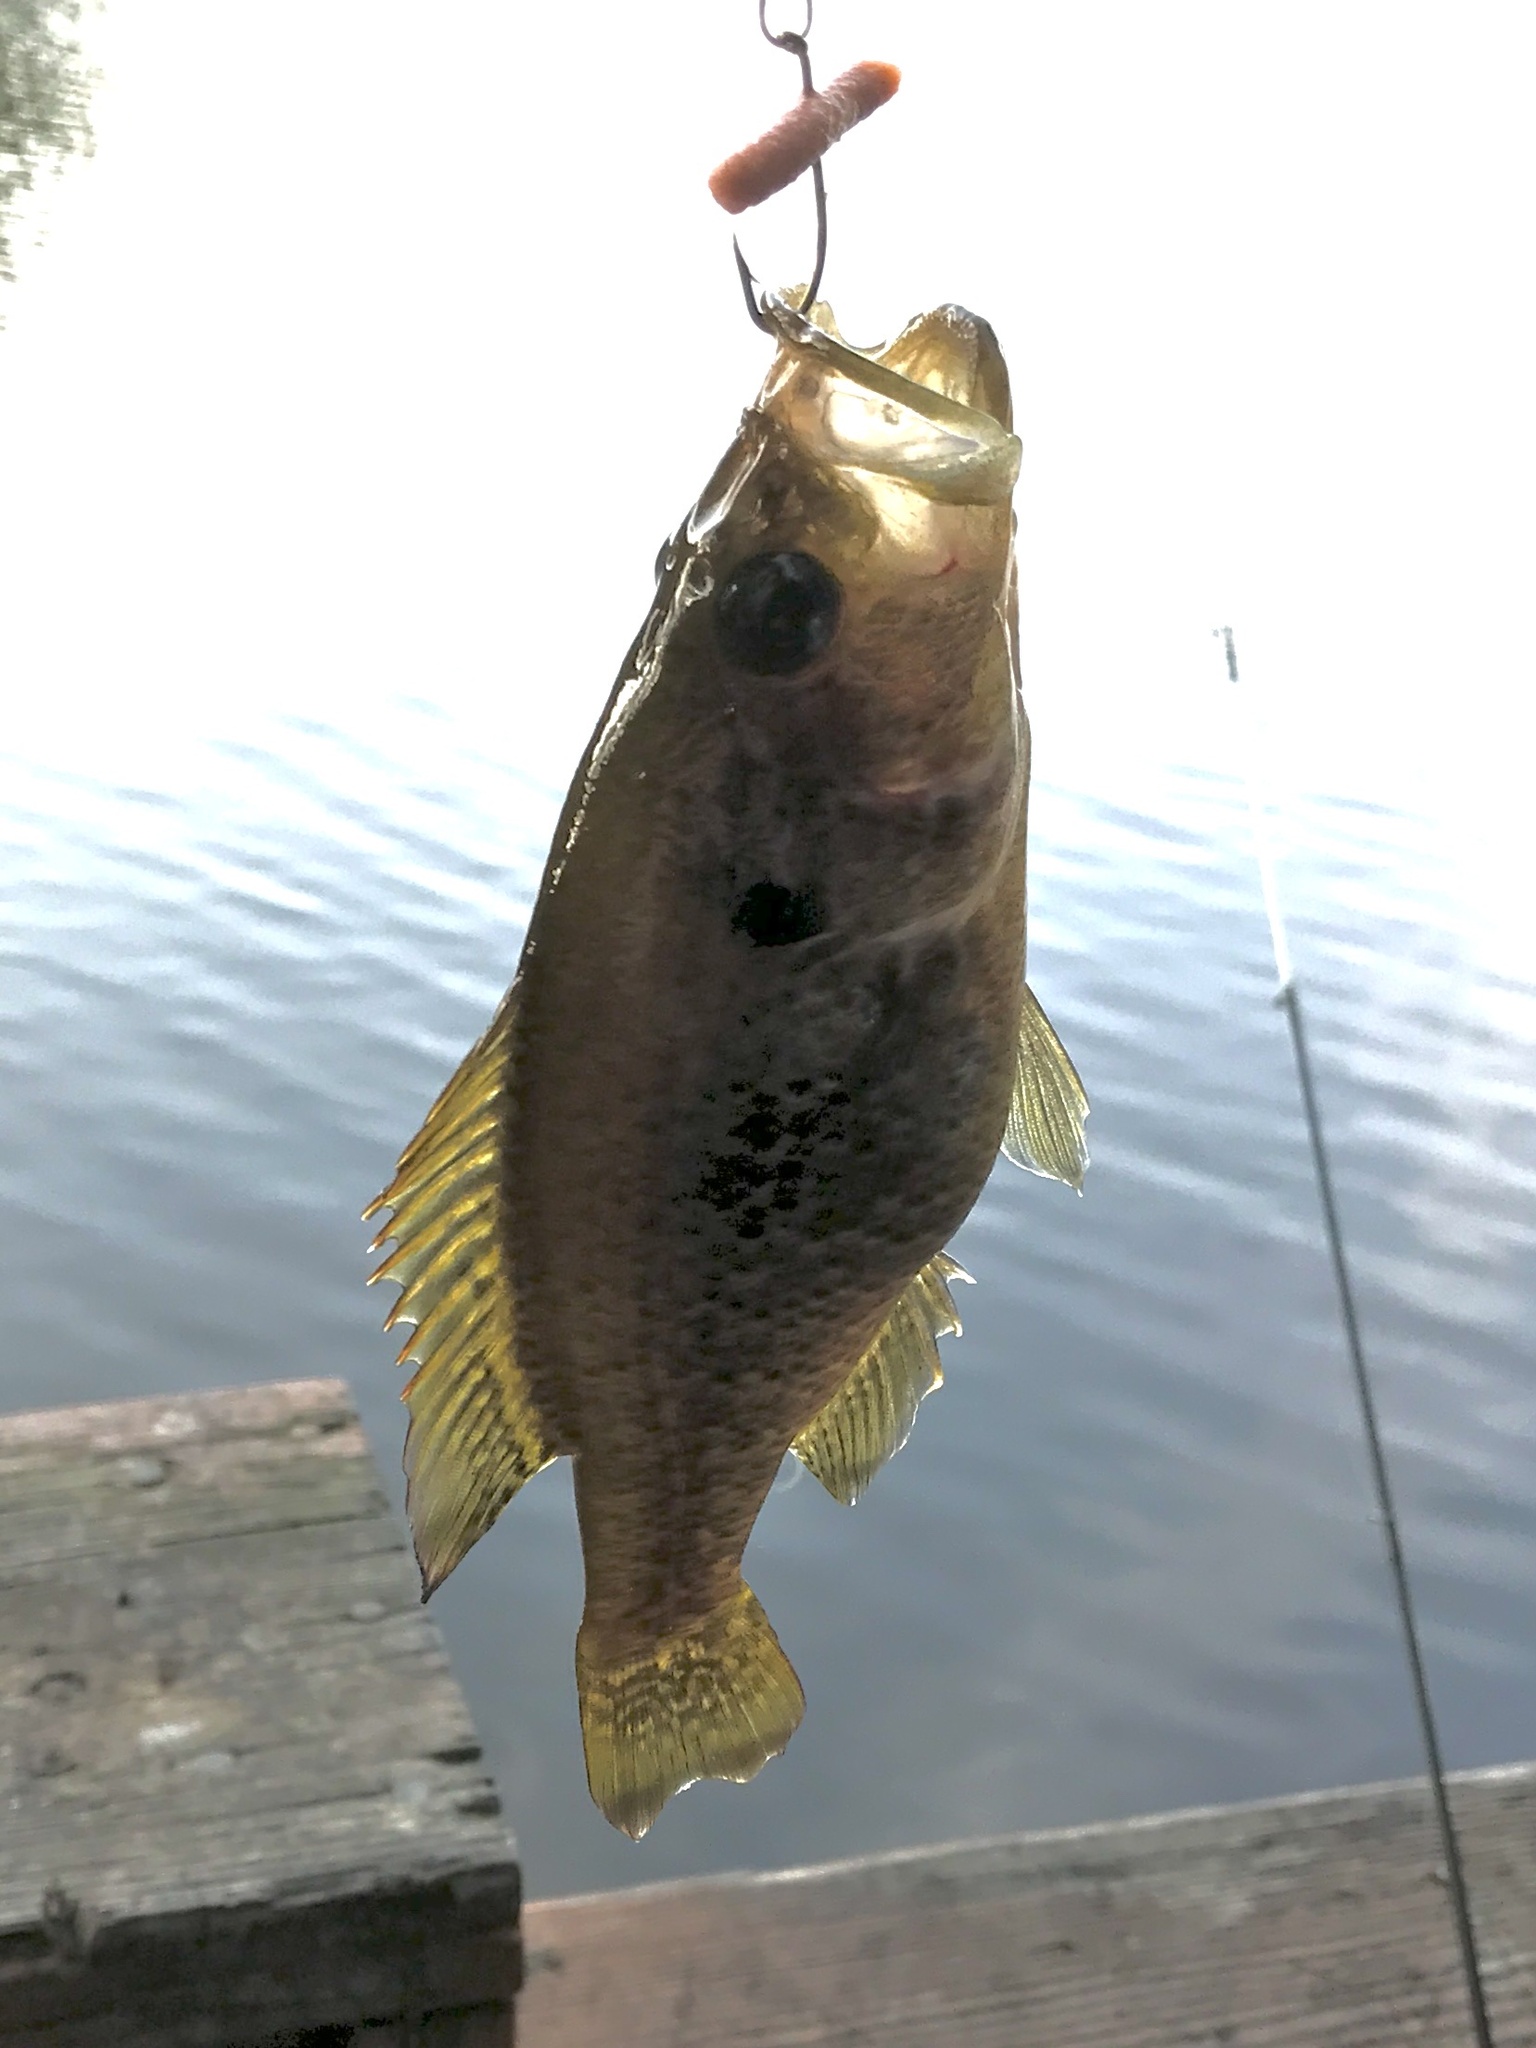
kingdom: Animalia
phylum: Chordata
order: Perciformes
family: Centrarchidae
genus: Lepomis
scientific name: Lepomis gulosus
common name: Warmouth
